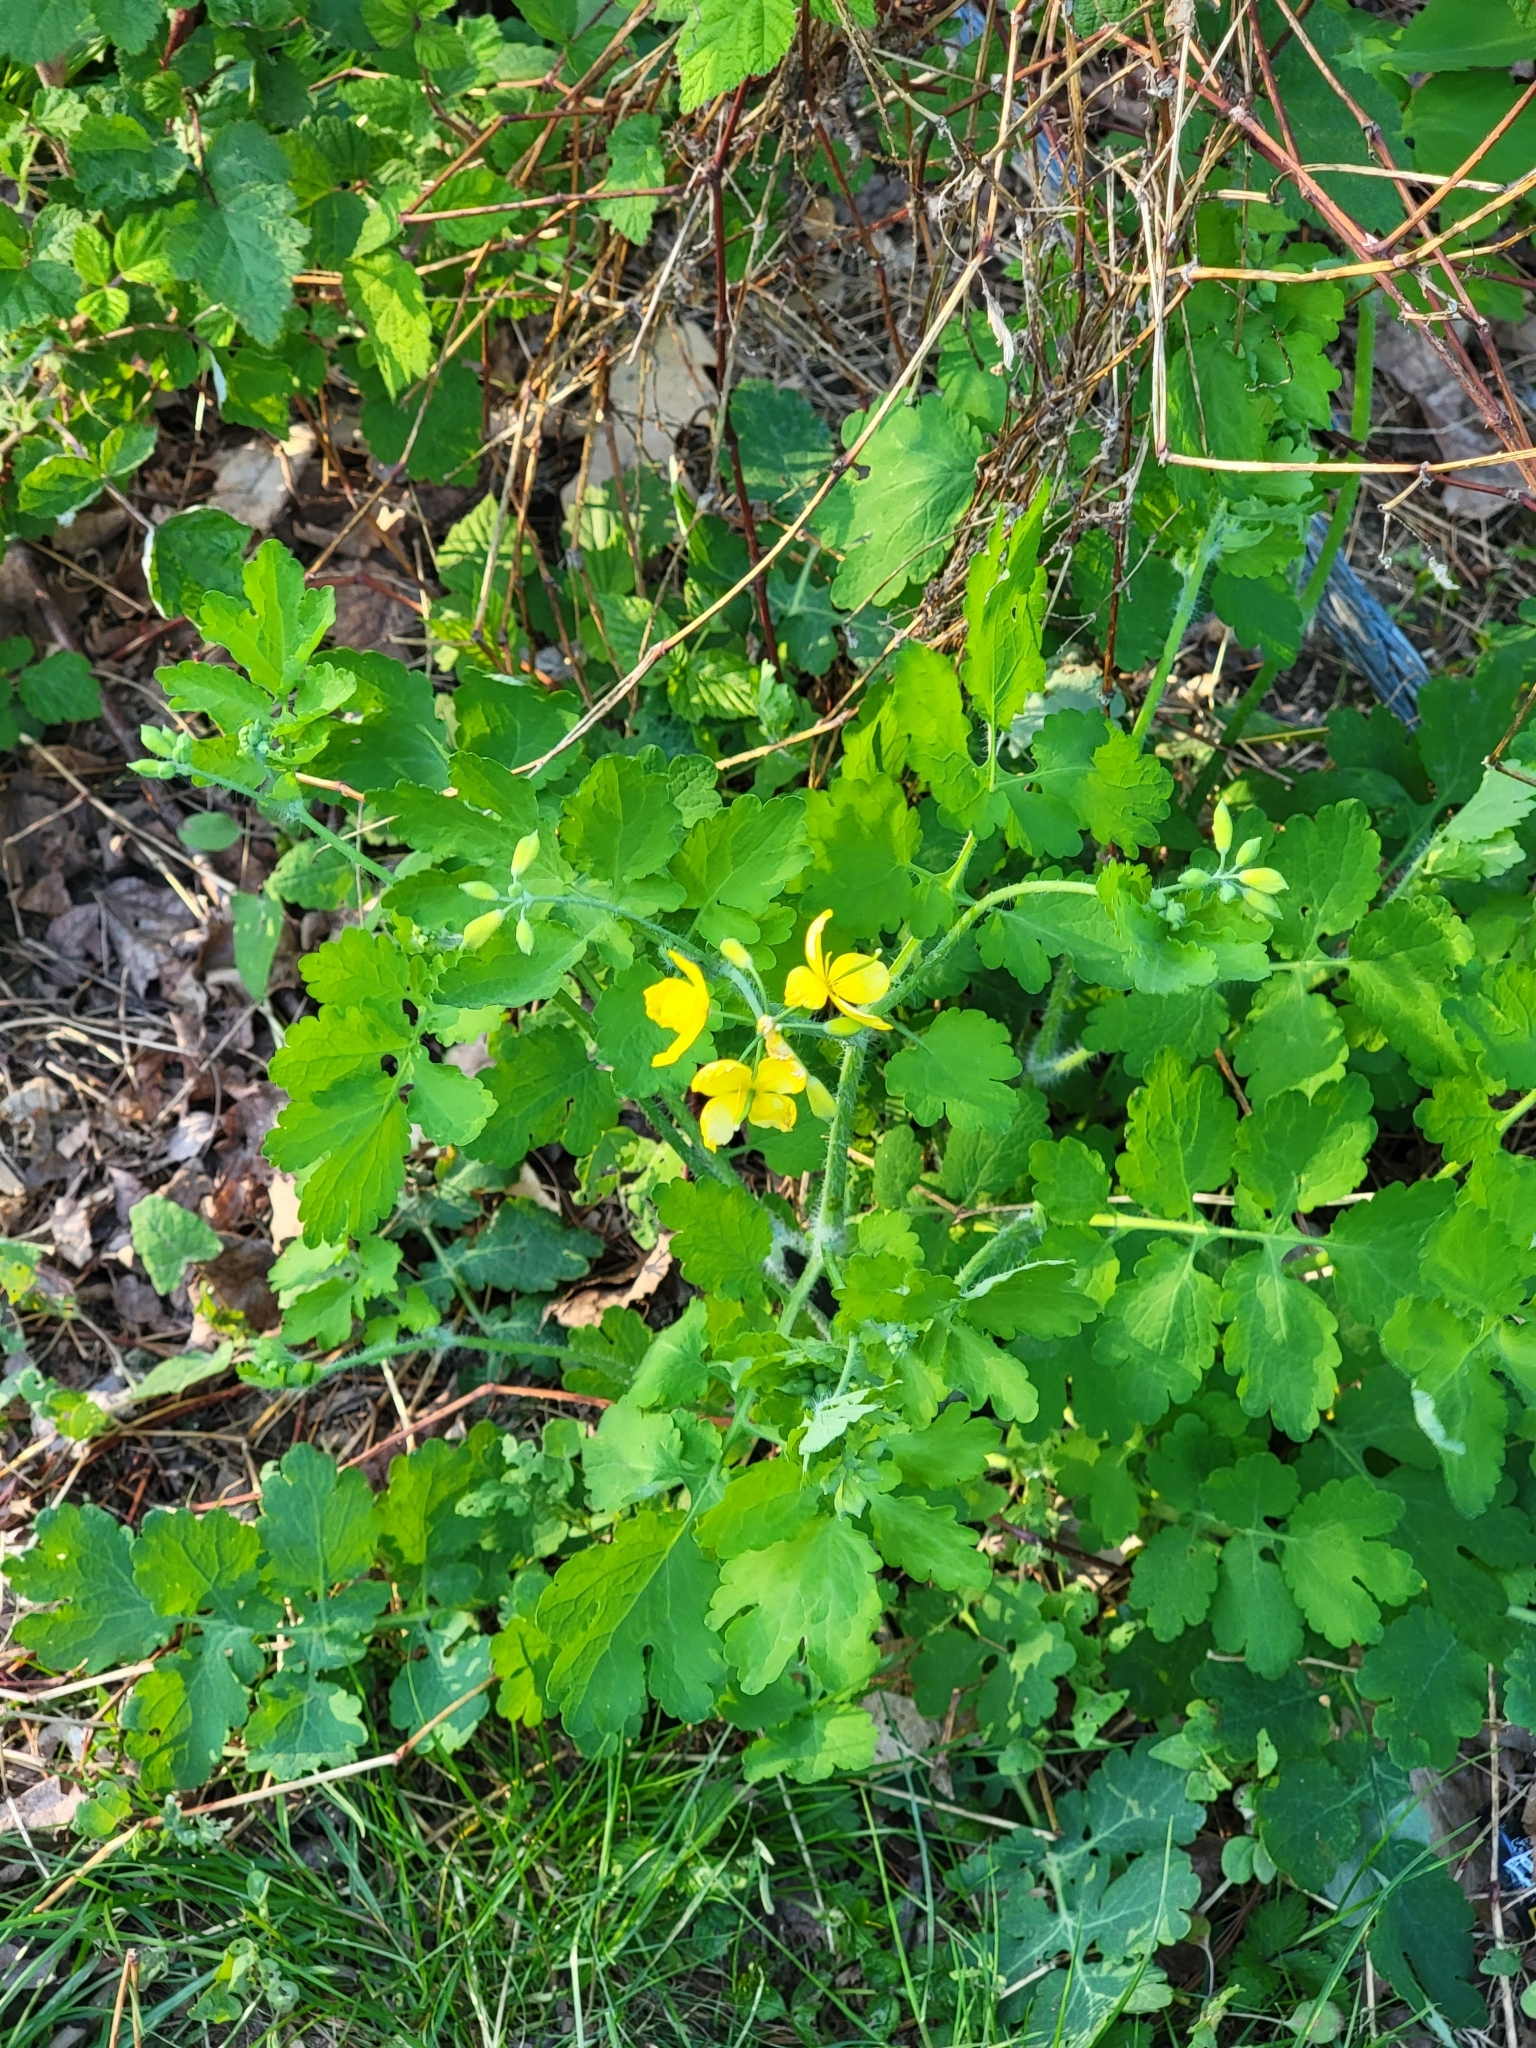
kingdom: Plantae
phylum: Tracheophyta
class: Magnoliopsida
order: Ranunculales
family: Papaveraceae
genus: Chelidonium
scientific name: Chelidonium majus
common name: Greater celandine
